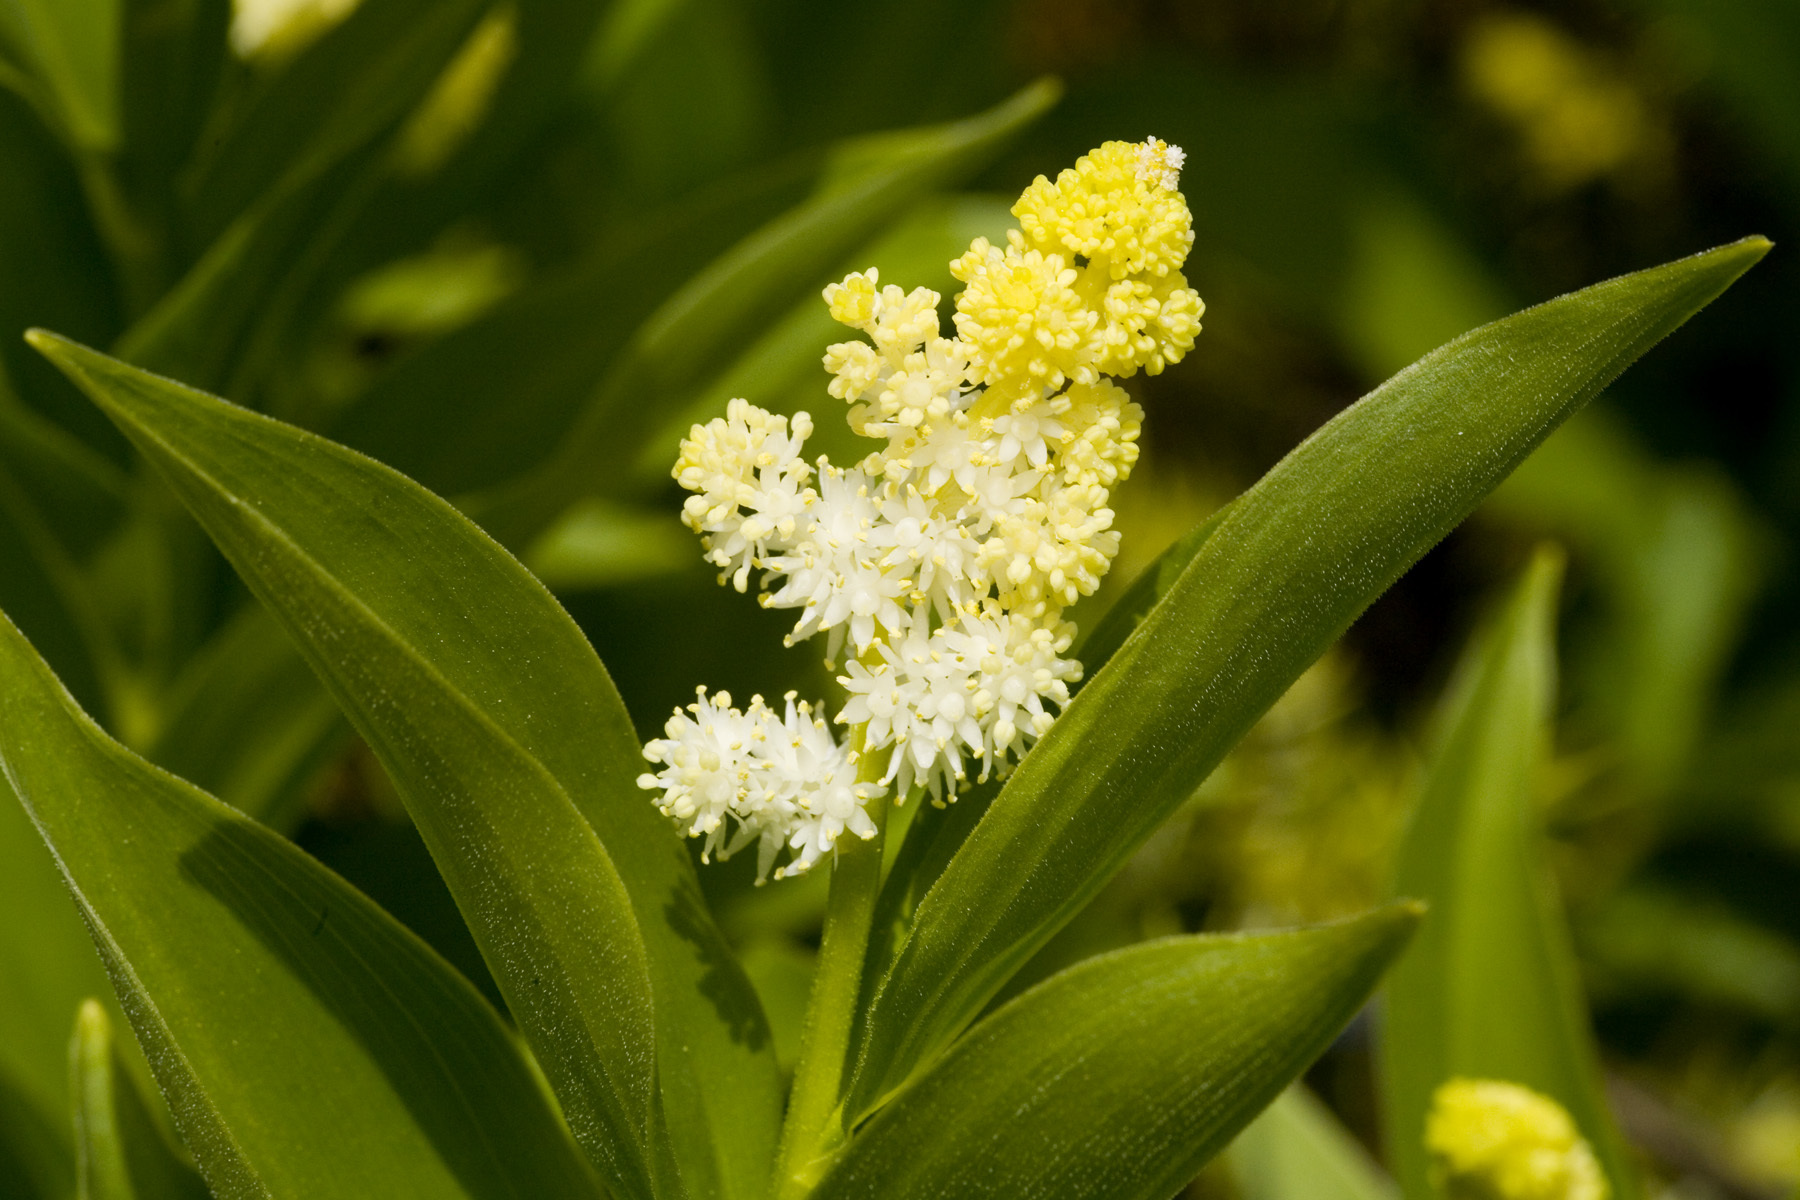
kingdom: Plantae
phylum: Tracheophyta
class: Liliopsida
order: Asparagales
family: Asparagaceae
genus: Maianthemum
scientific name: Maianthemum racemosum
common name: False spikenard
